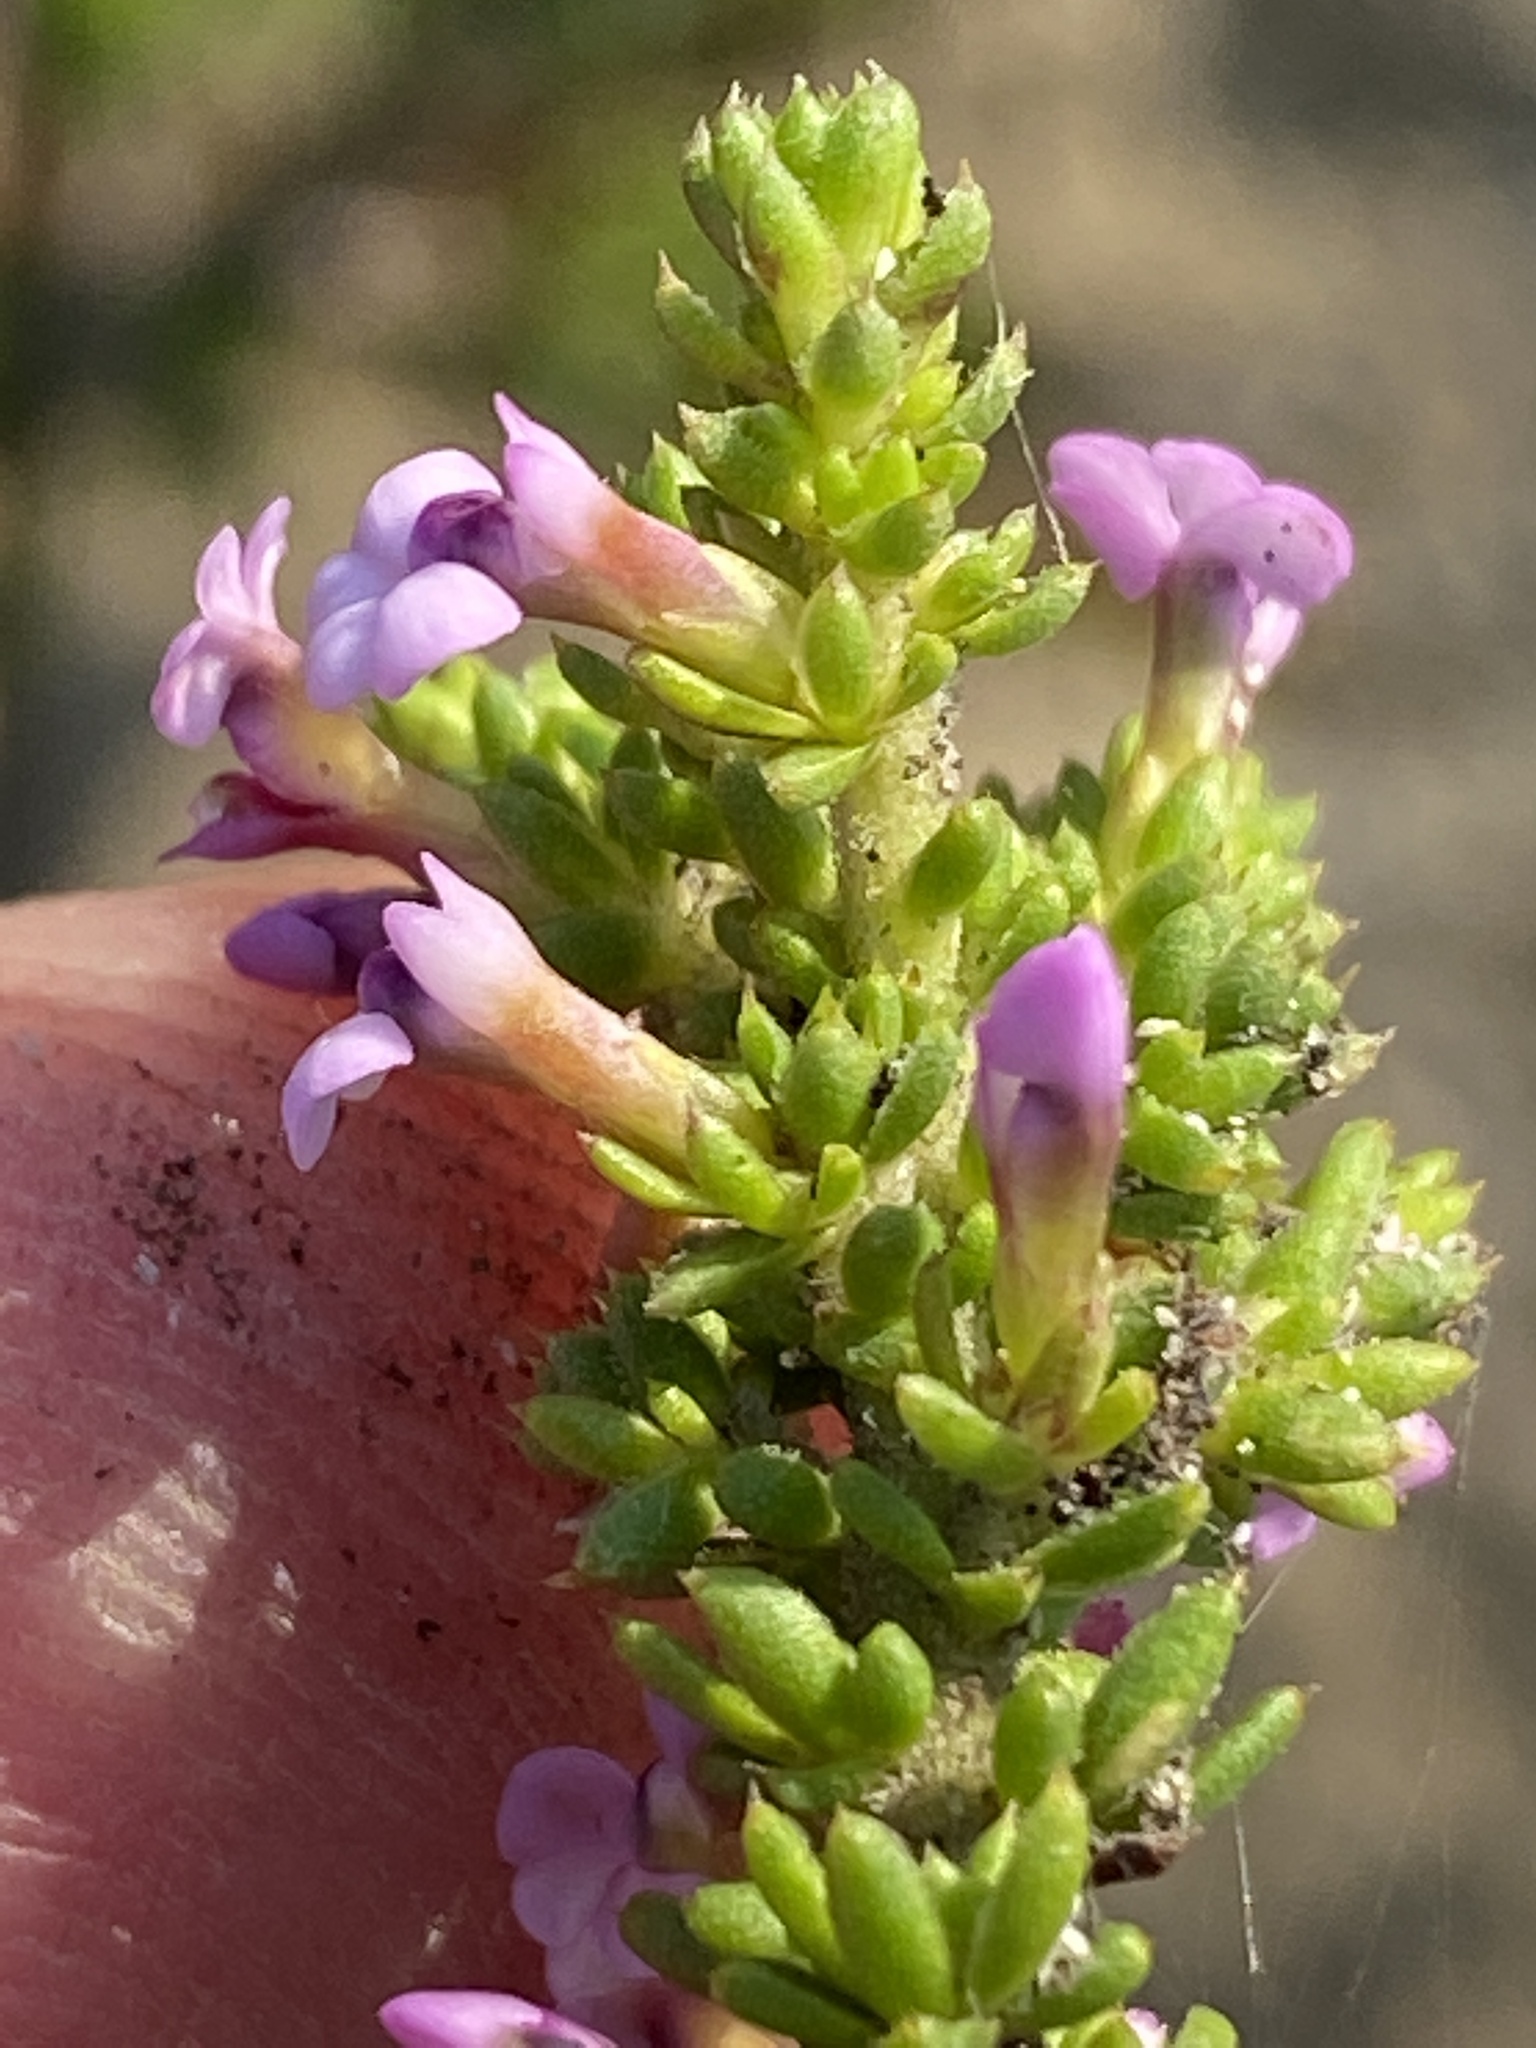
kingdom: Plantae
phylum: Tracheophyta
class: Magnoliopsida
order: Fabales
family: Polygalaceae
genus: Muraltia
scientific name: Muraltia salsolacea
